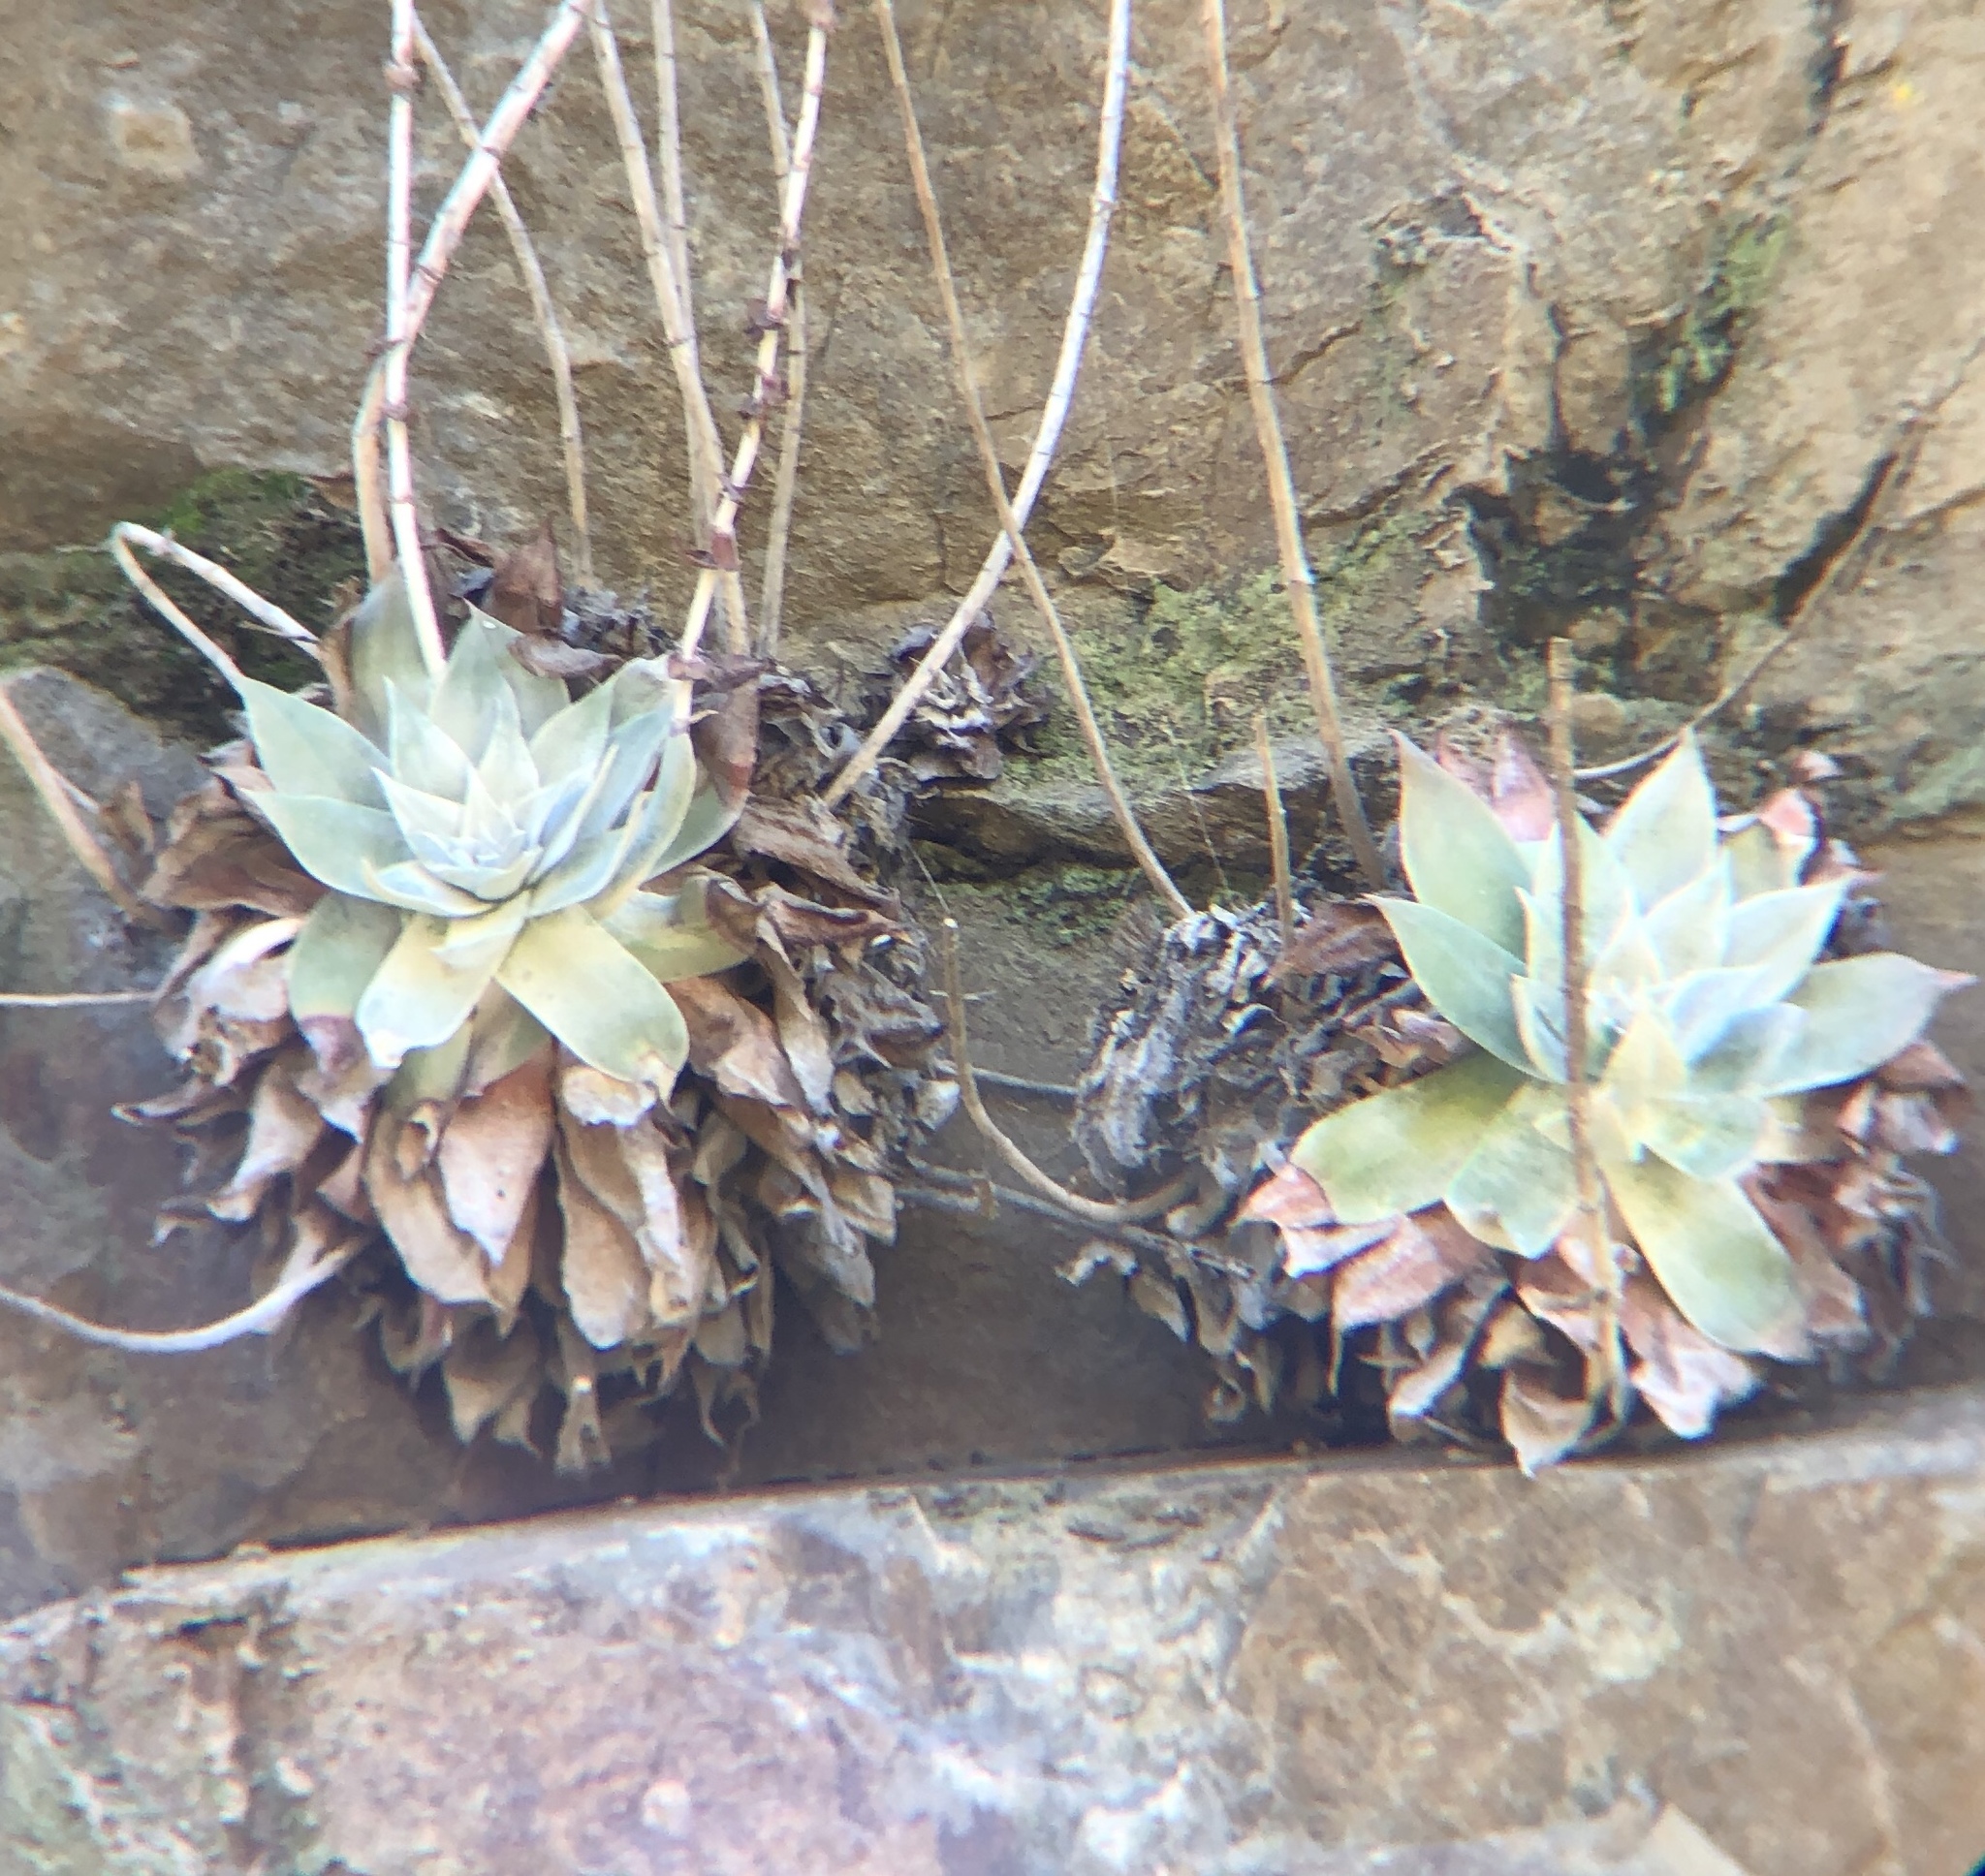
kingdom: Plantae
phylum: Tracheophyta
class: Magnoliopsida
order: Saxifragales
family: Crassulaceae
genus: Dudleya
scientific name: Dudleya pulverulenta
